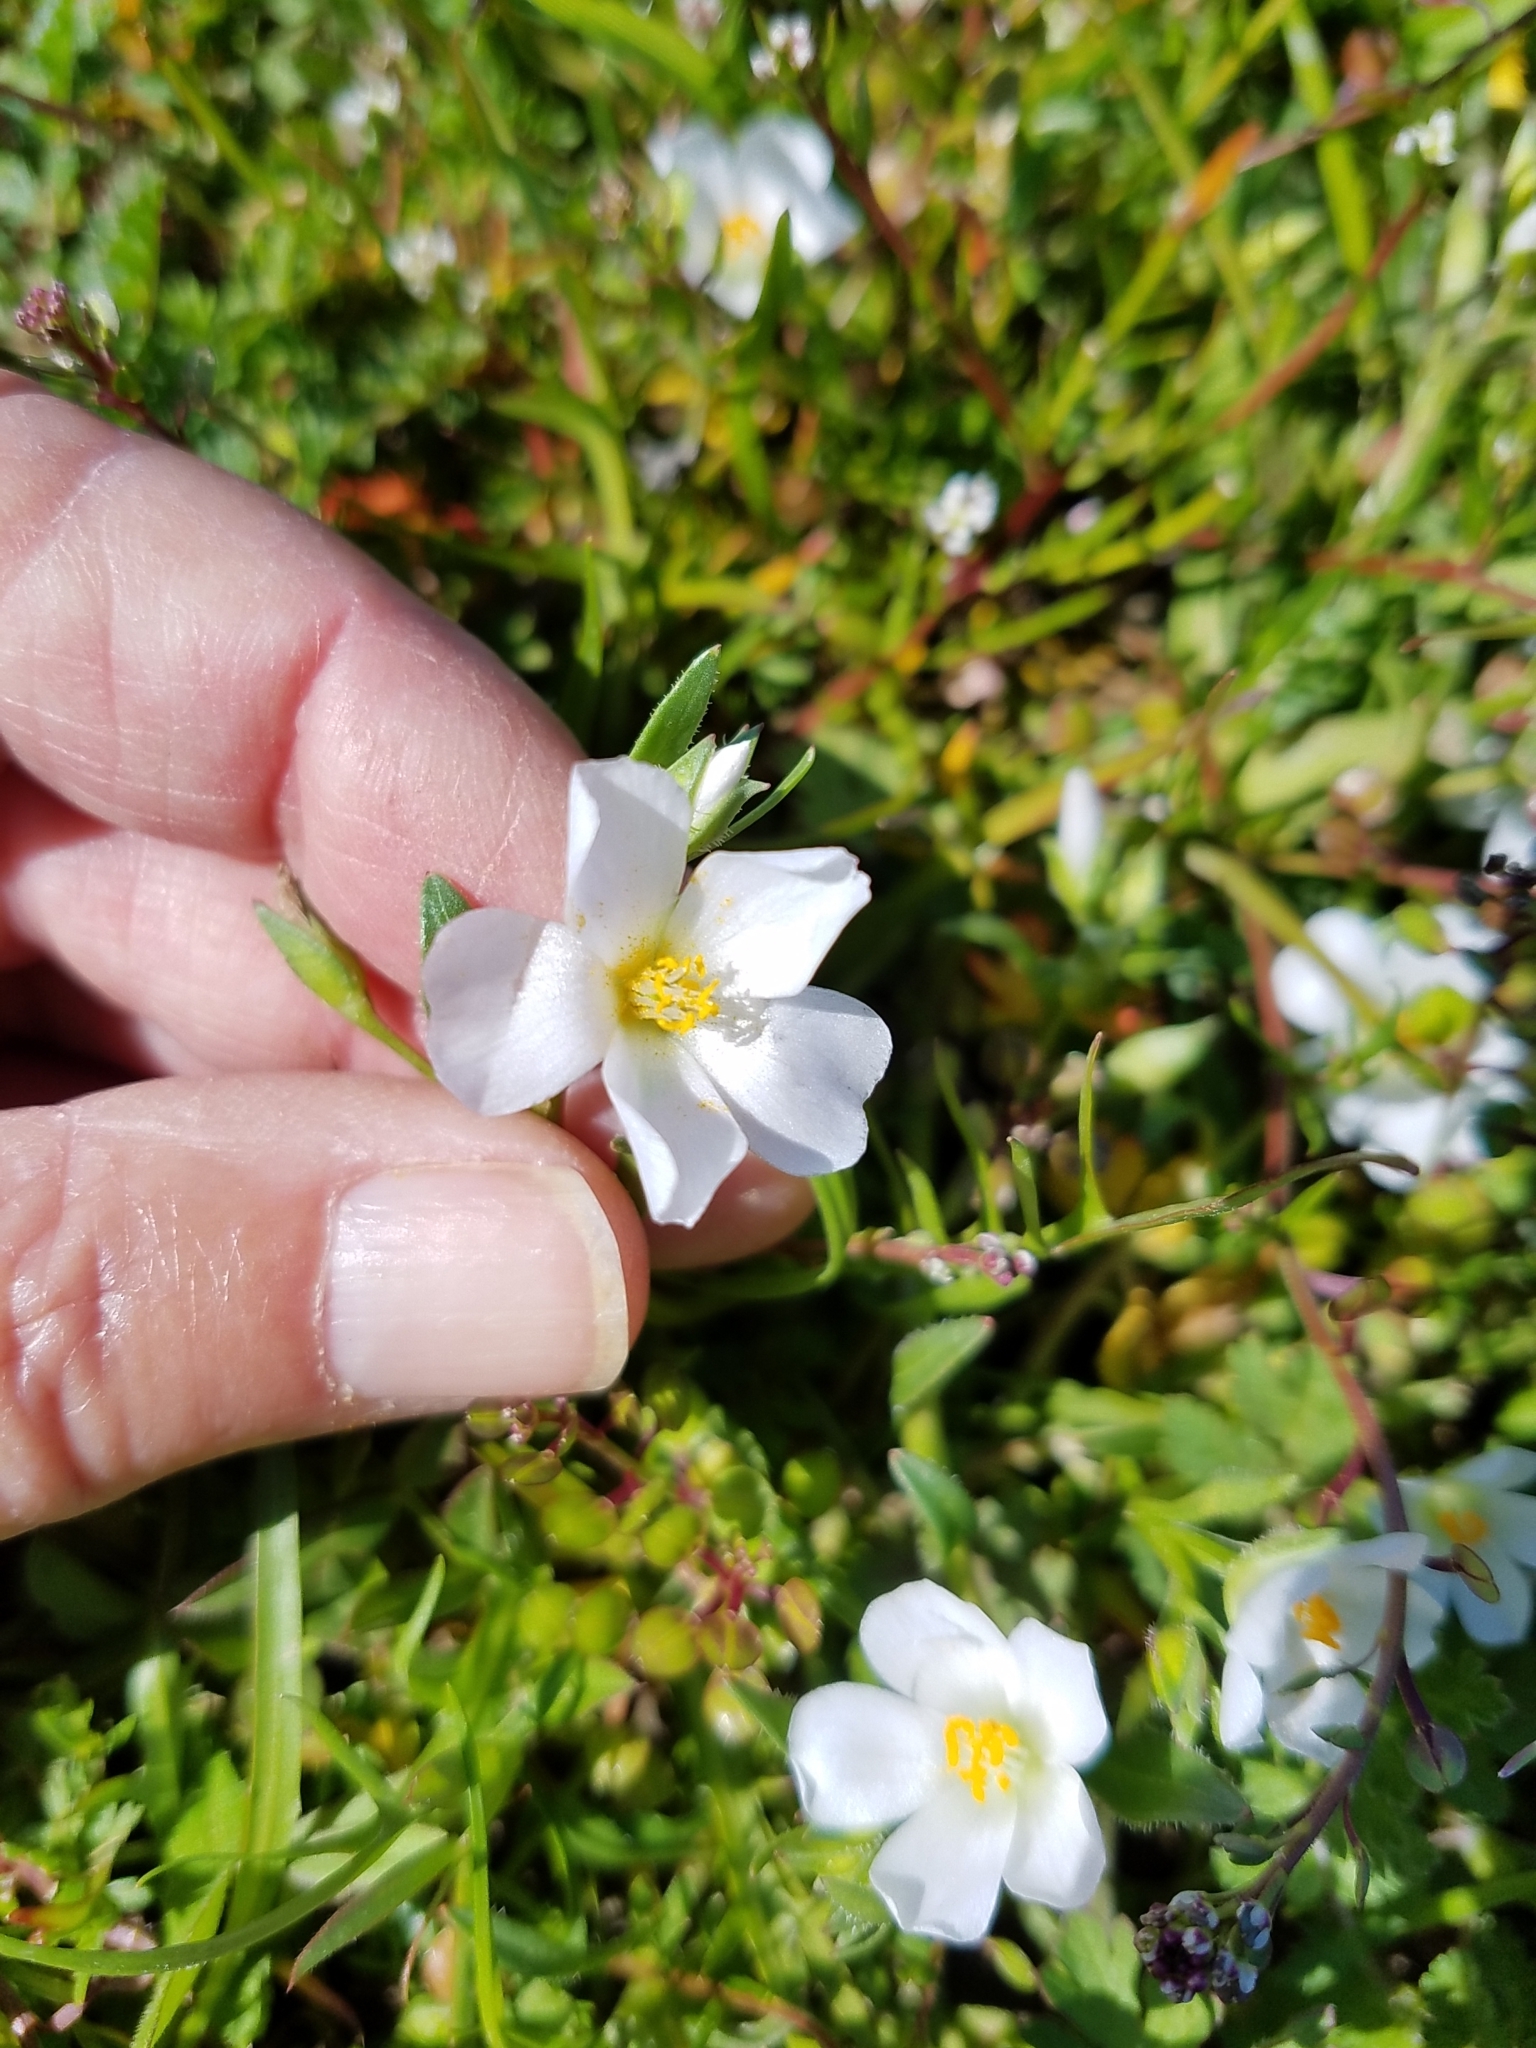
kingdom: Plantae
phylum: Tracheophyta
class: Magnoliopsida
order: Caryophyllales
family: Montiaceae
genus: Calandrinia
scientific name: Calandrinia menziesii
